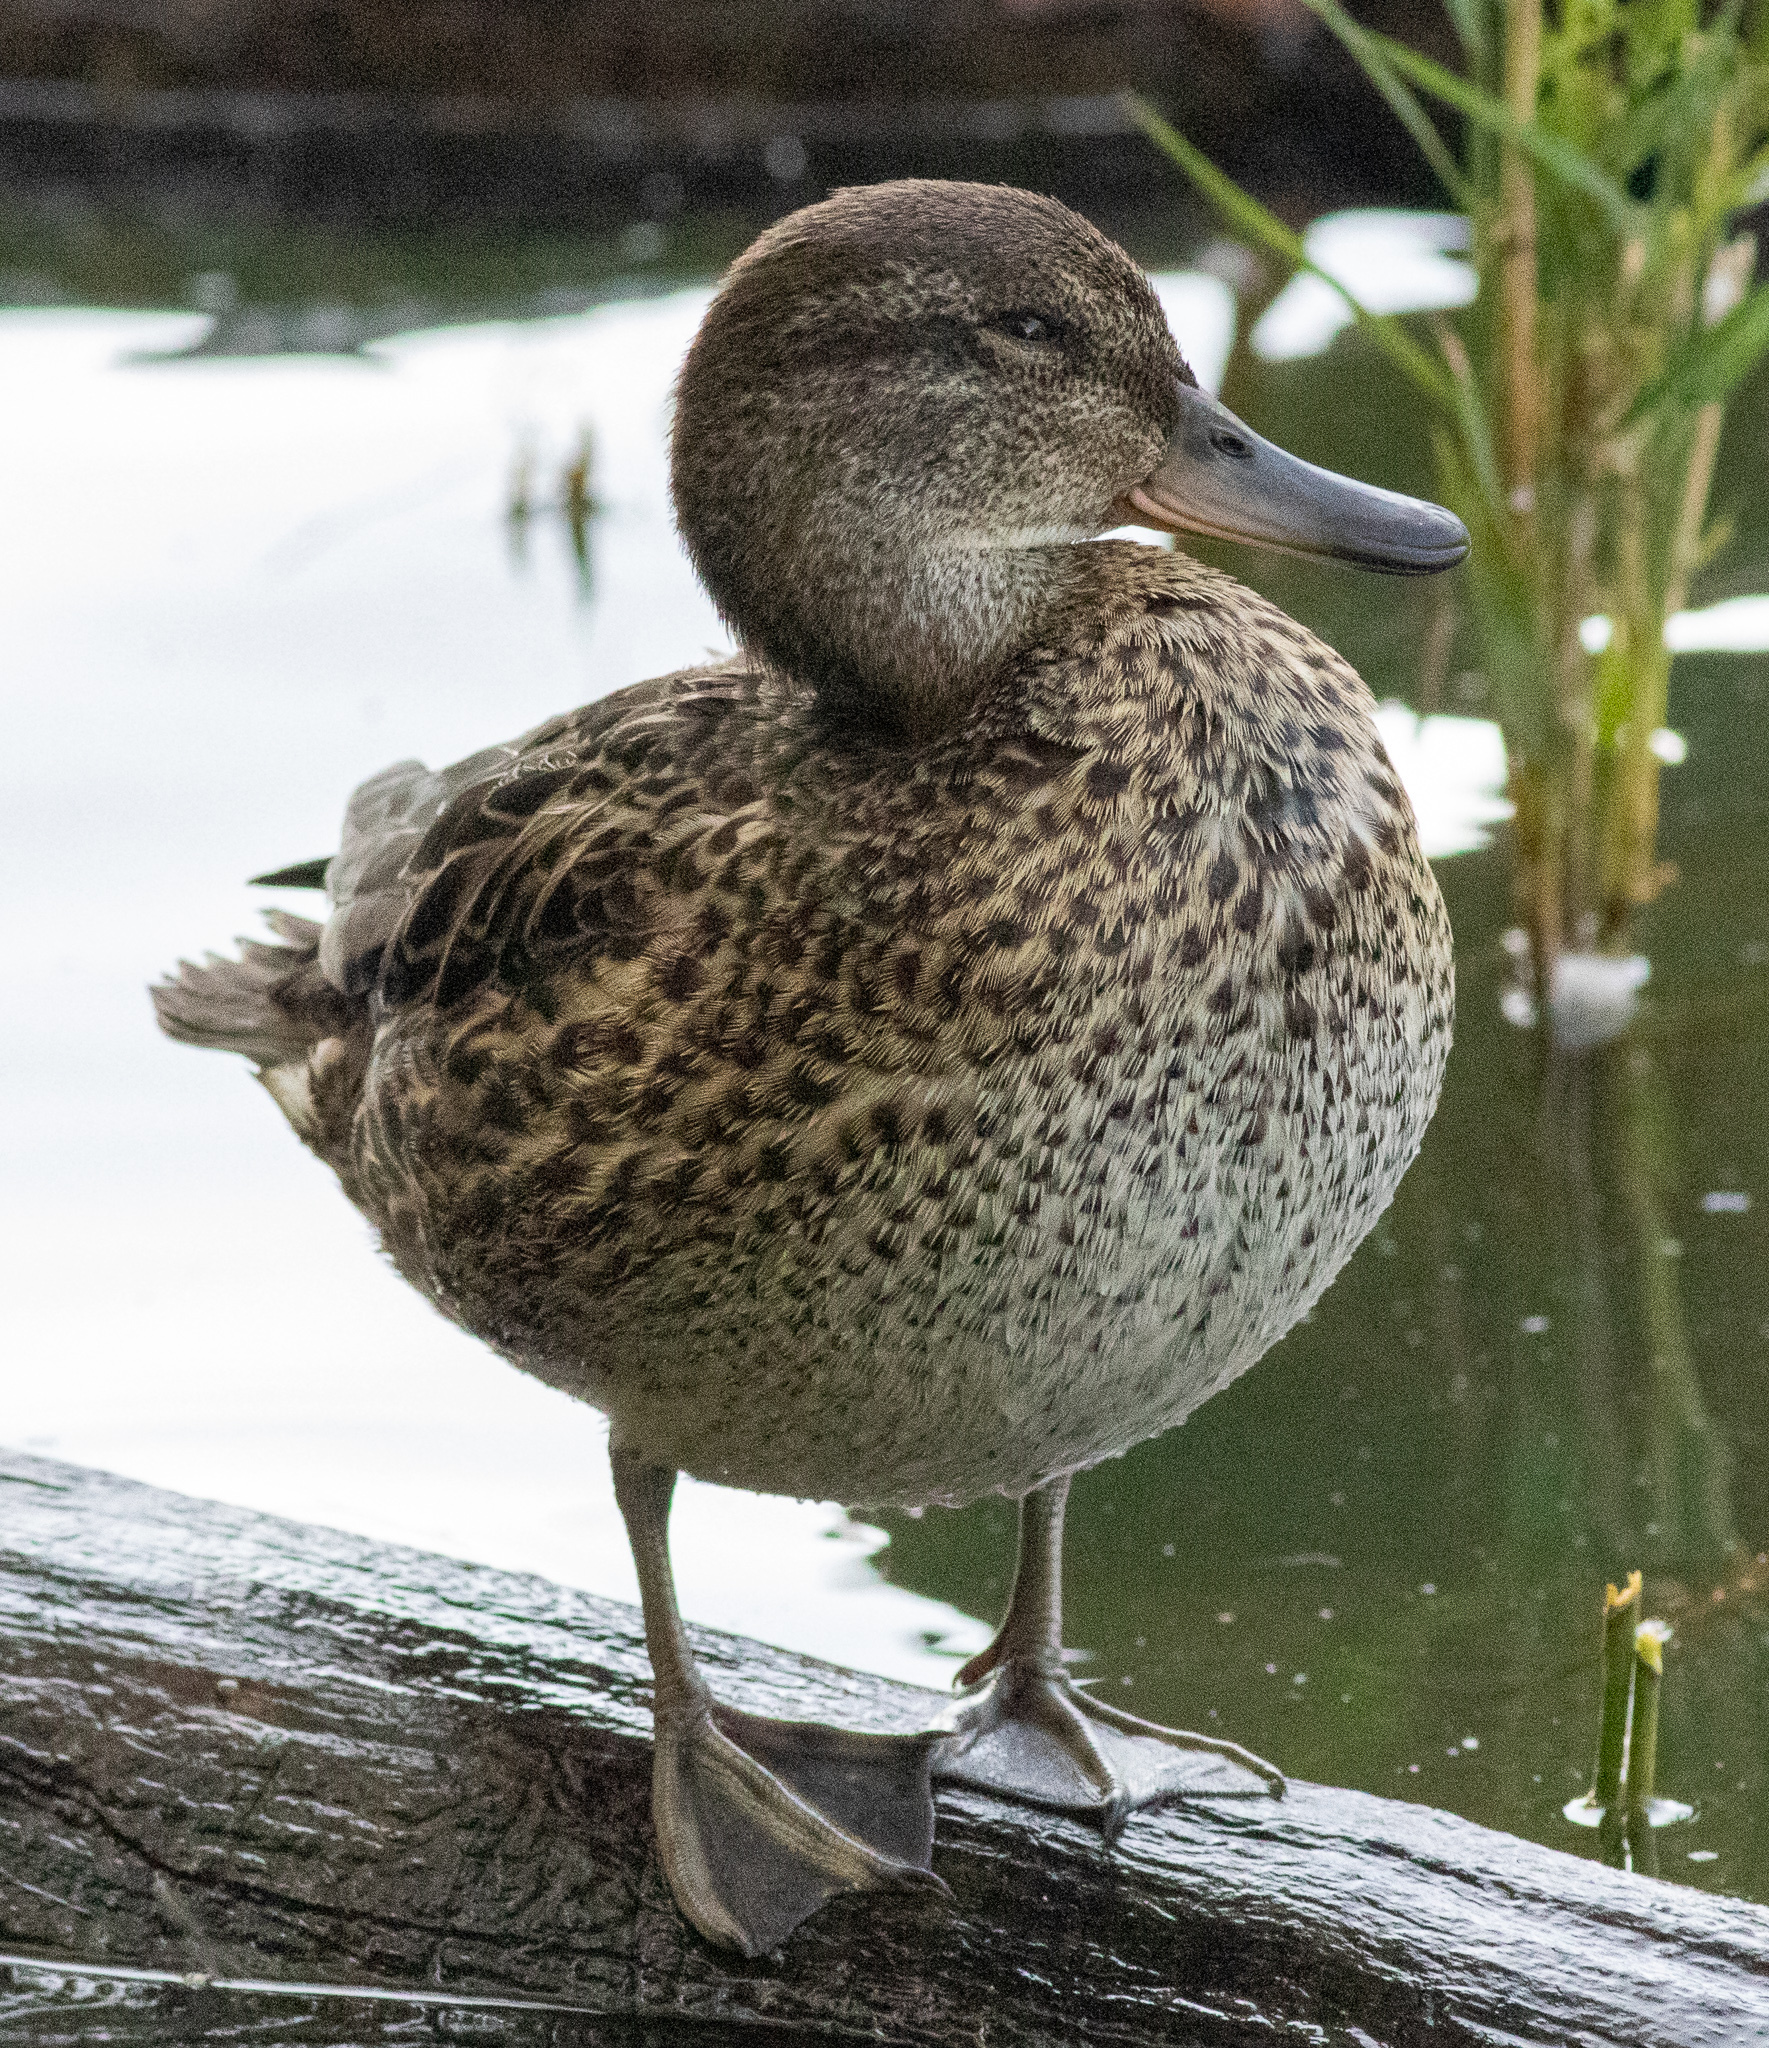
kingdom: Animalia
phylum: Chordata
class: Aves
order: Anseriformes
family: Anatidae
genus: Anas
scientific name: Anas crecca
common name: Eurasian teal
